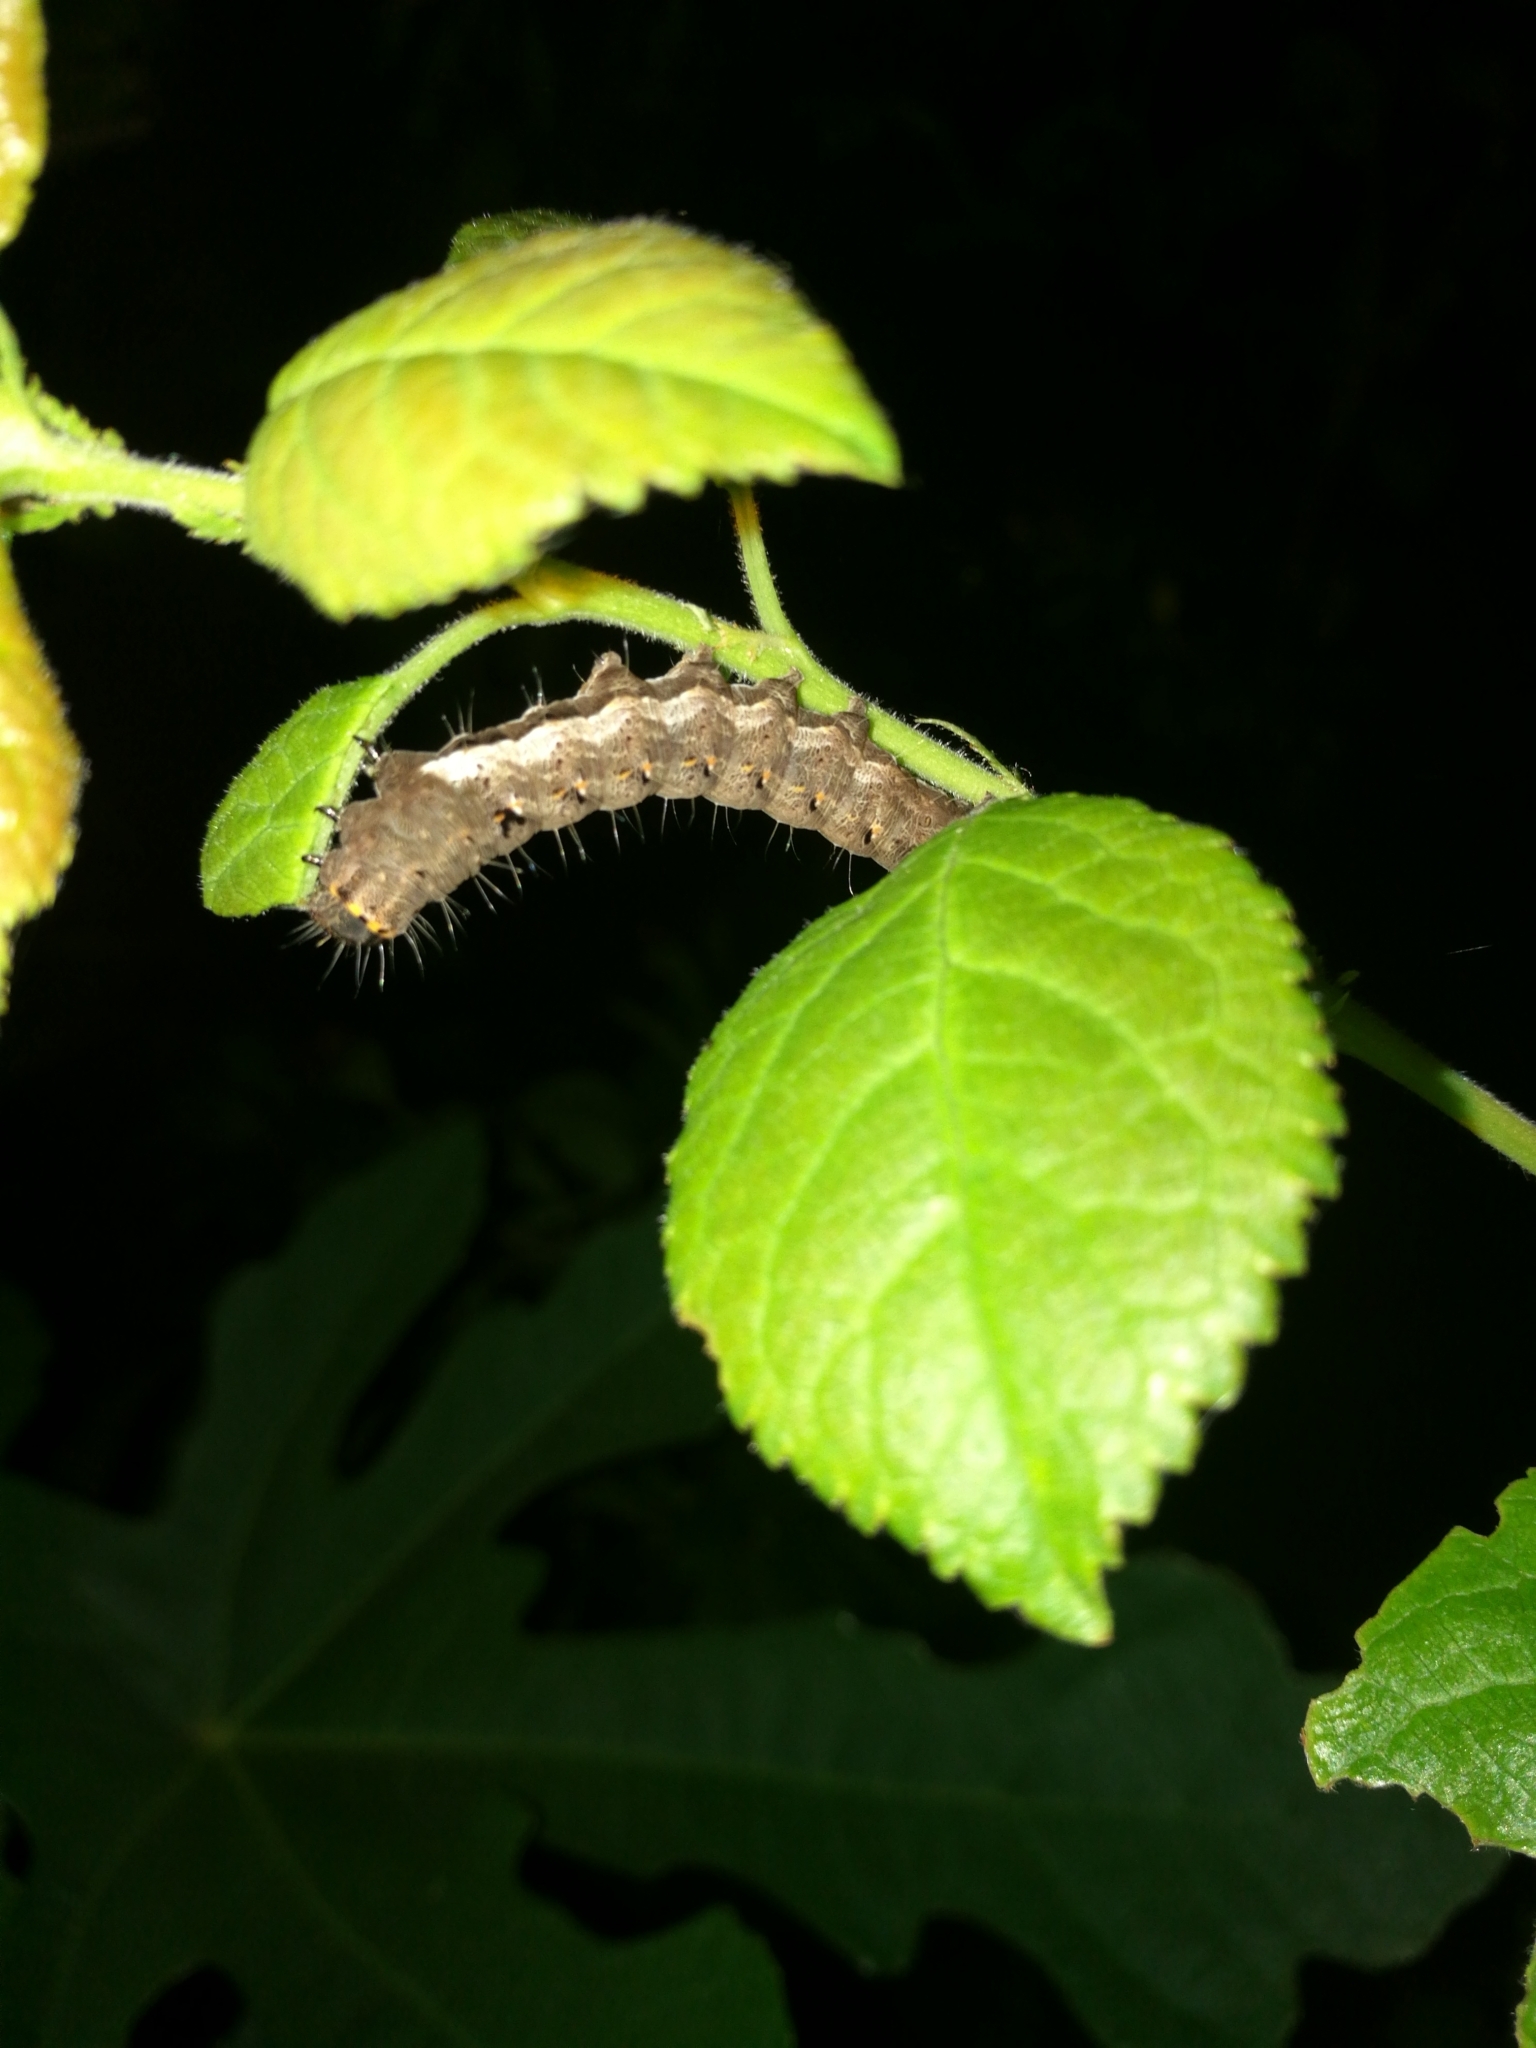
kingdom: Animalia
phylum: Arthropoda
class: Insecta
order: Lepidoptera
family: Noctuidae
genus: Valeria
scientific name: Valeria jaspidea
